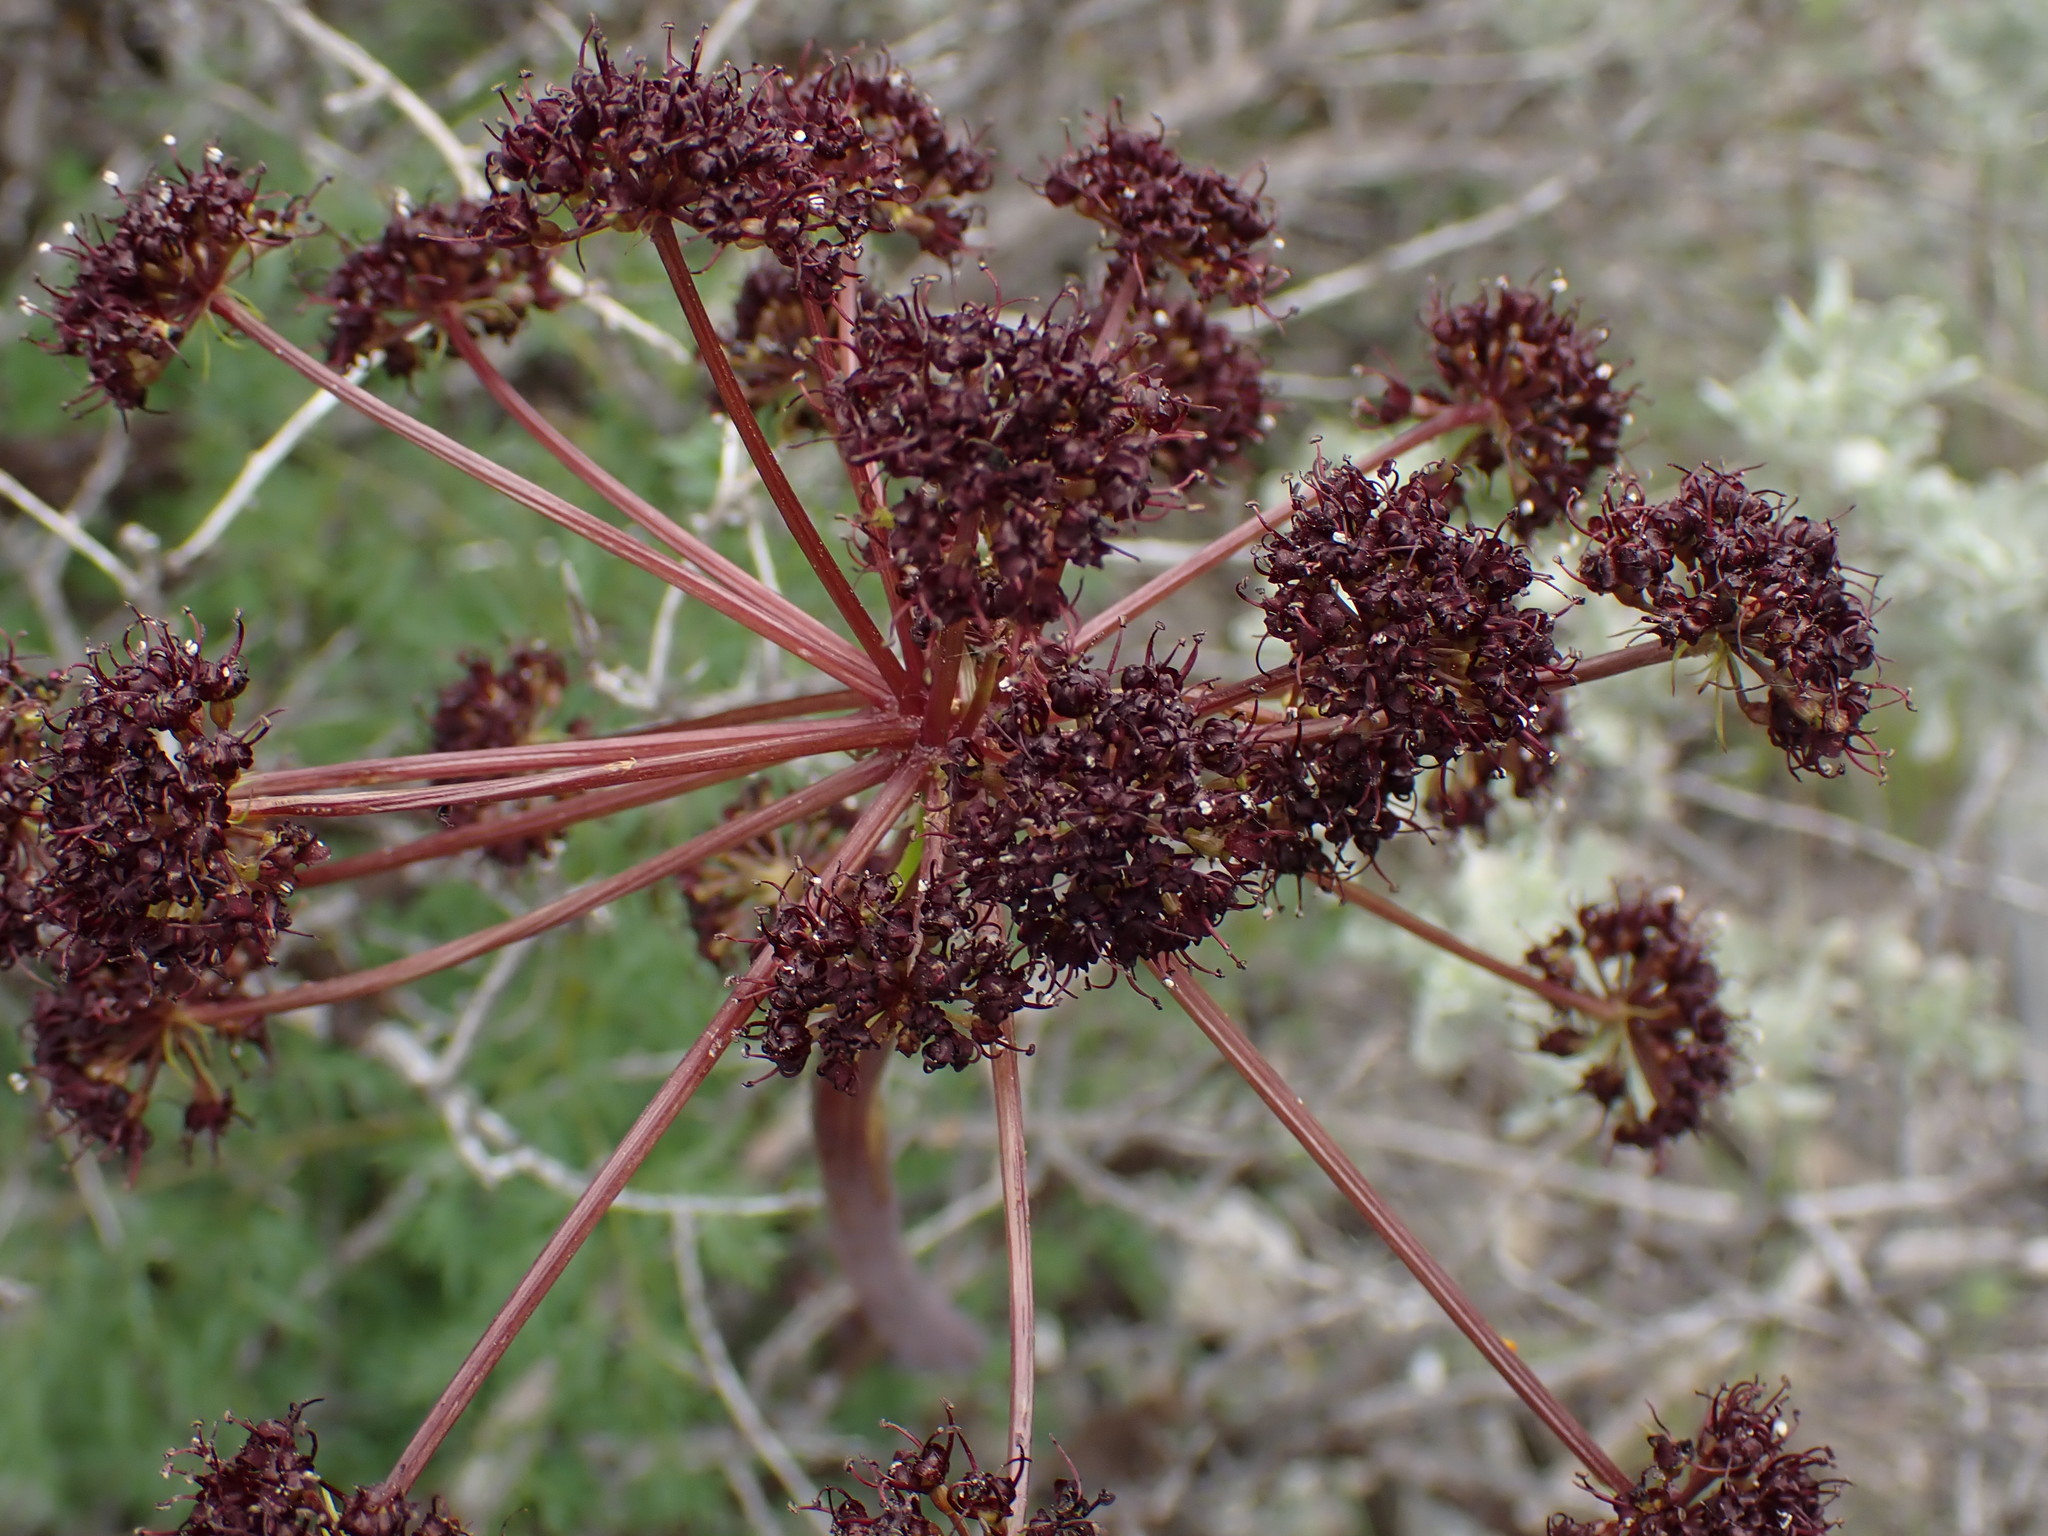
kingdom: Plantae
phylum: Tracheophyta
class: Magnoliopsida
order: Apiales
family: Apiaceae
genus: Lomatium
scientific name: Lomatium multifidum
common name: Carrot-leaved biscuitroot
